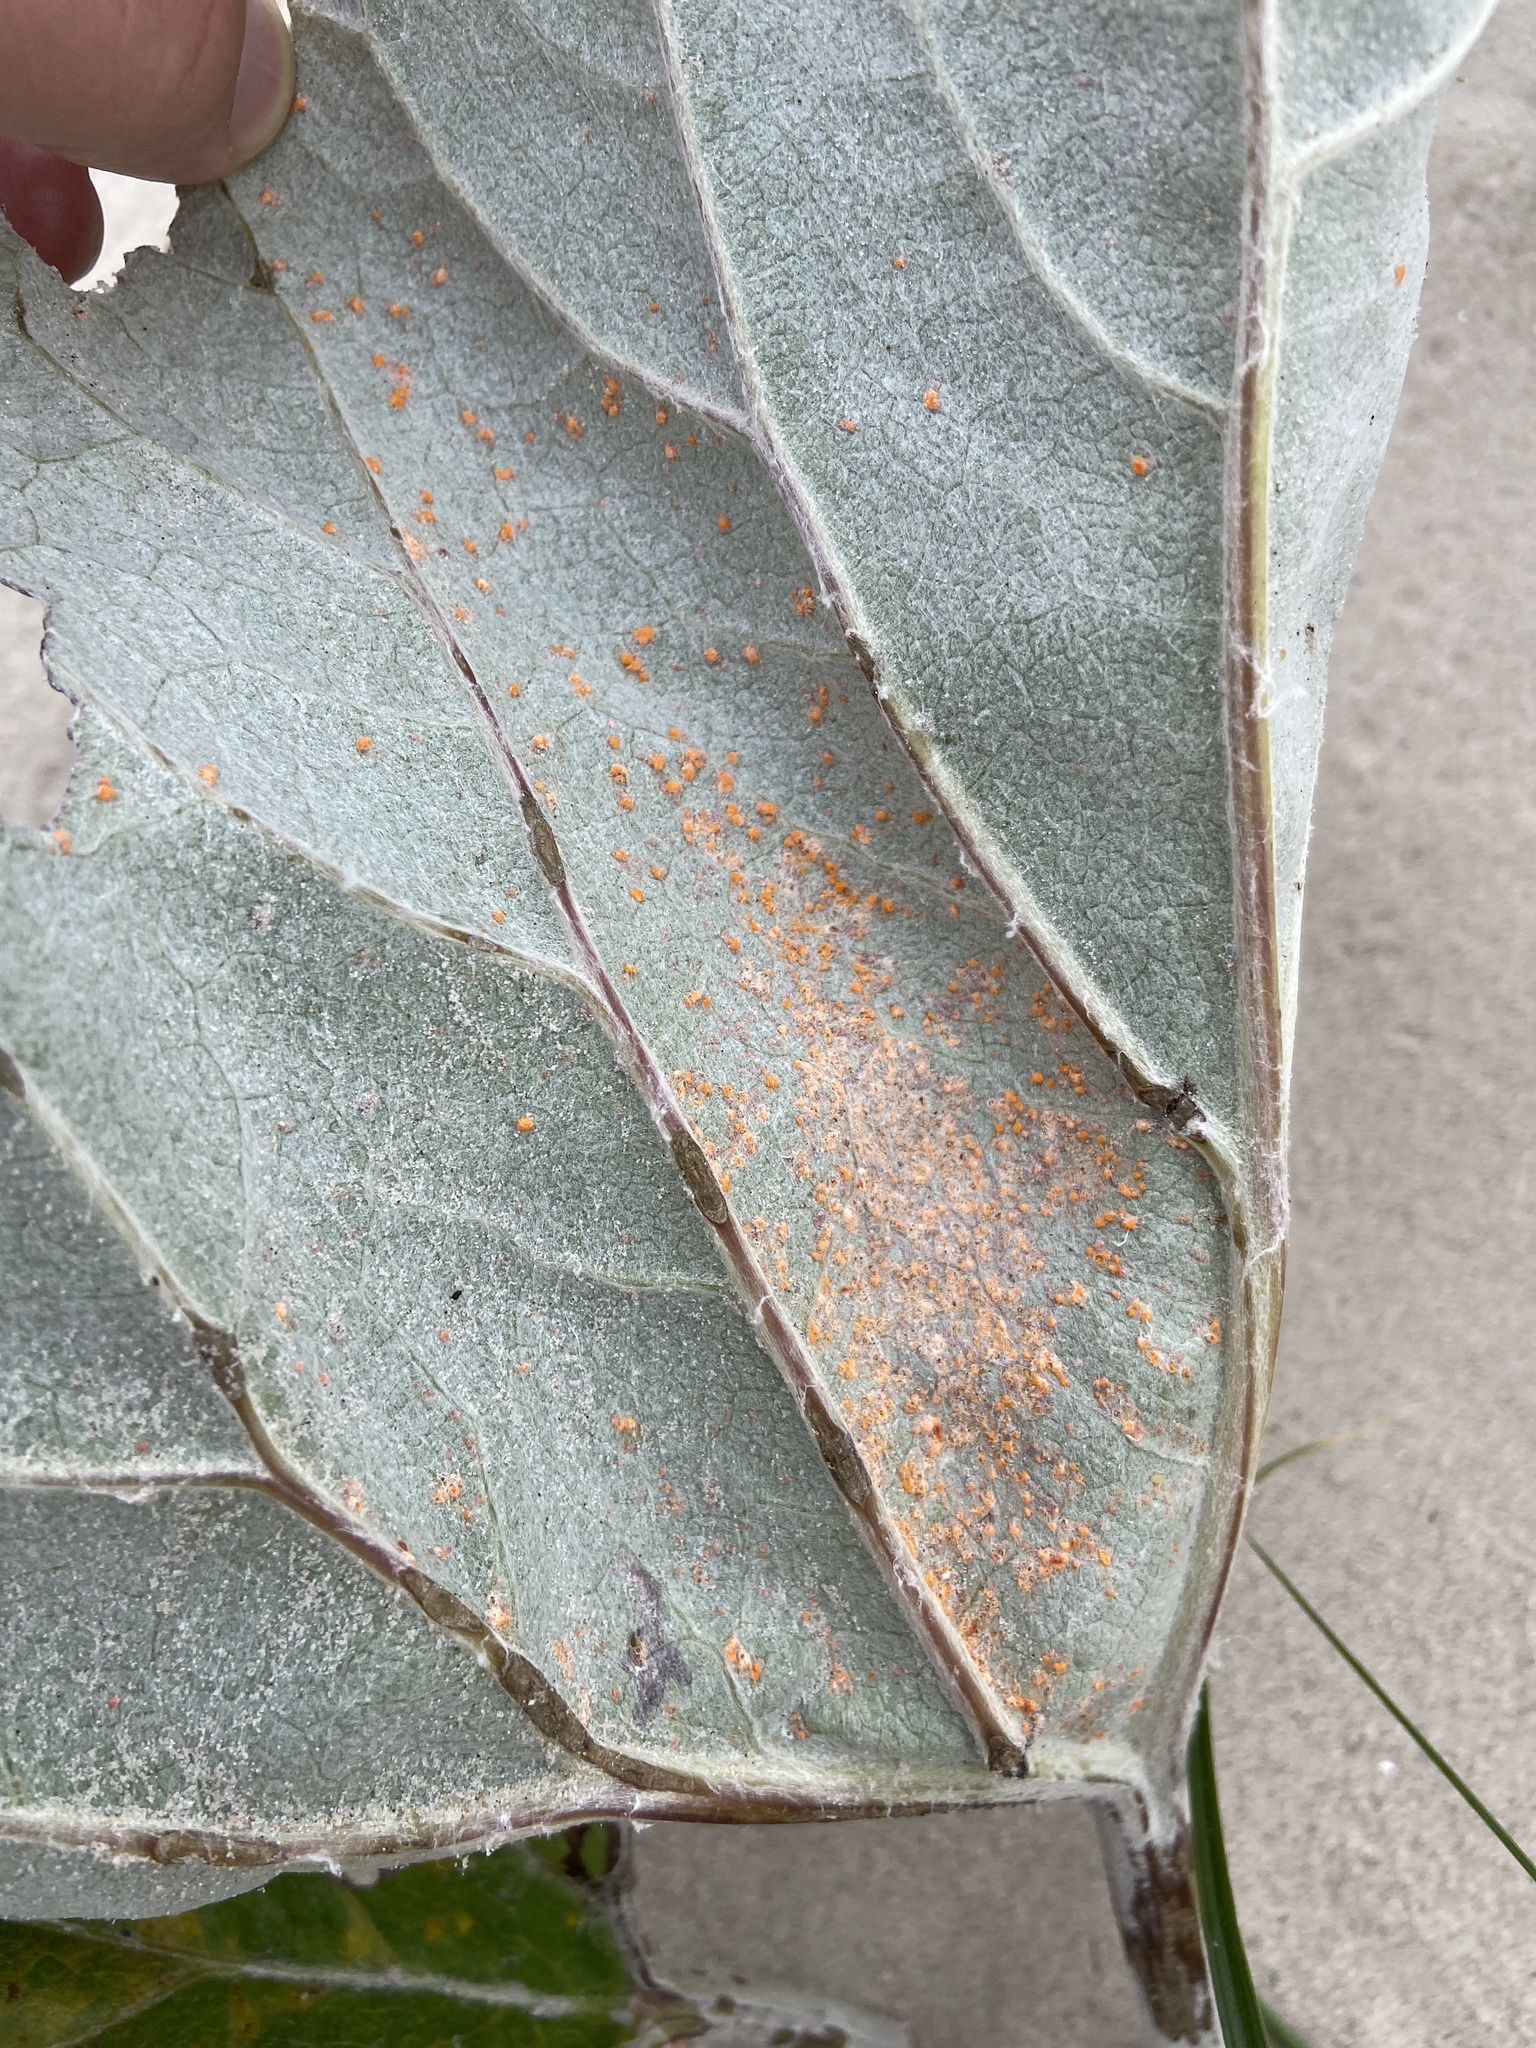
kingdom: Fungi
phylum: Basidiomycota
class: Pucciniomycetes
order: Pucciniales
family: Coleosporiaceae
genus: Coleosporium
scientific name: Coleosporium petasitis
